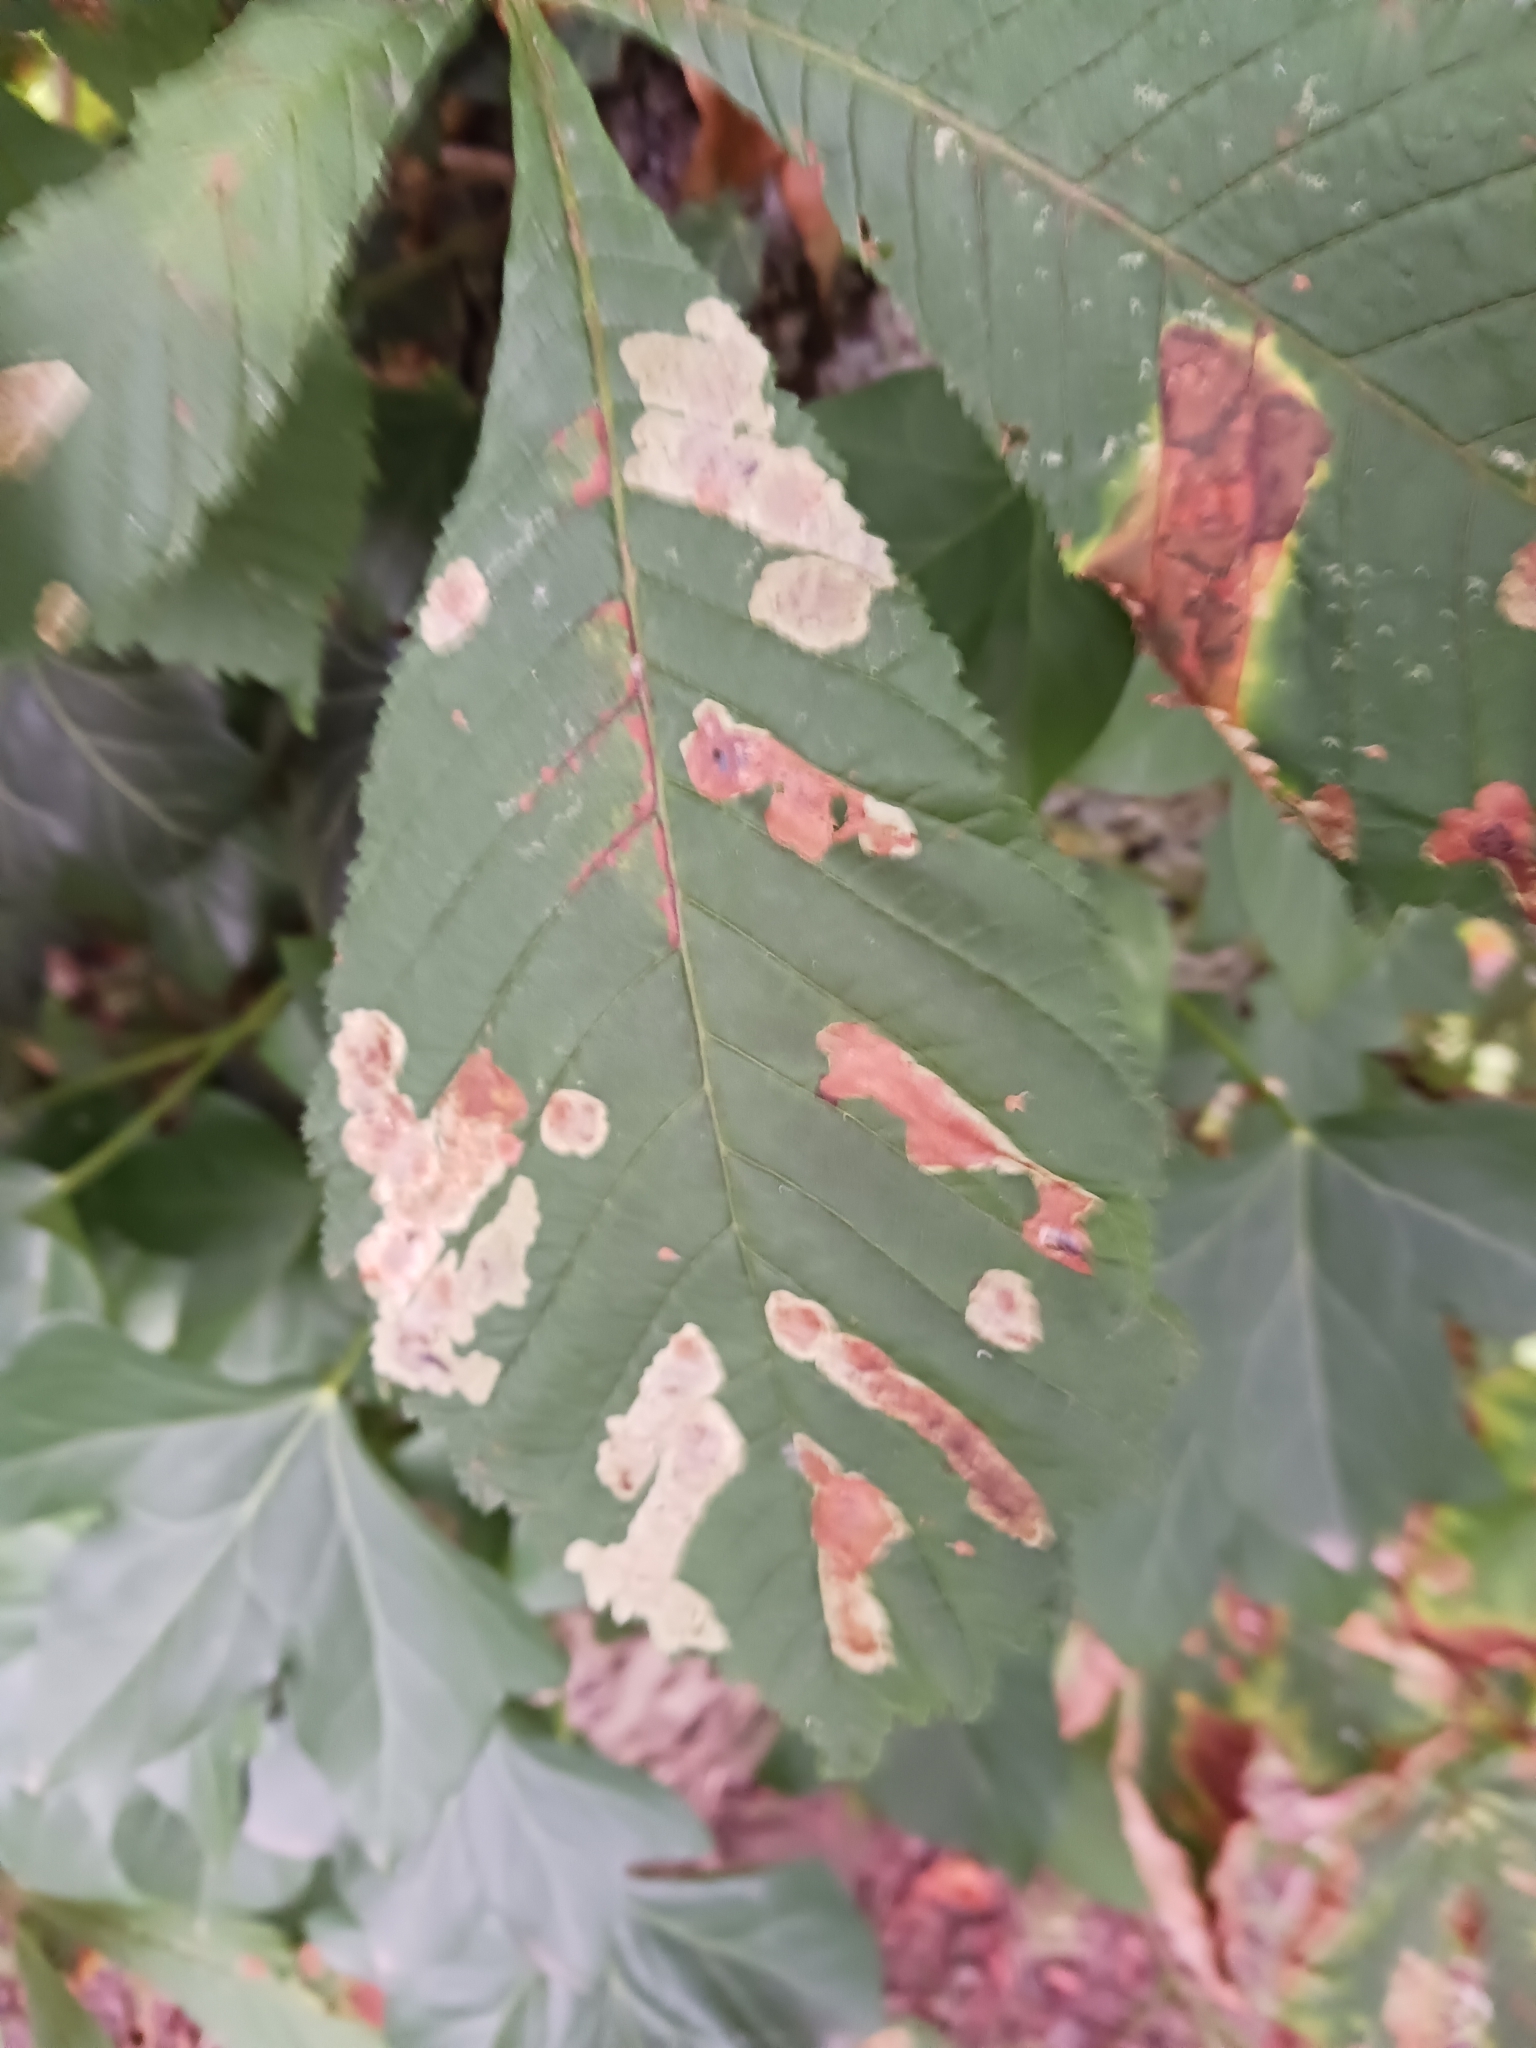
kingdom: Animalia
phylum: Arthropoda
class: Insecta
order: Lepidoptera
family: Gracillariidae
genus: Cameraria
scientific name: Cameraria ohridella
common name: Horse-chestnut leaf-miner
